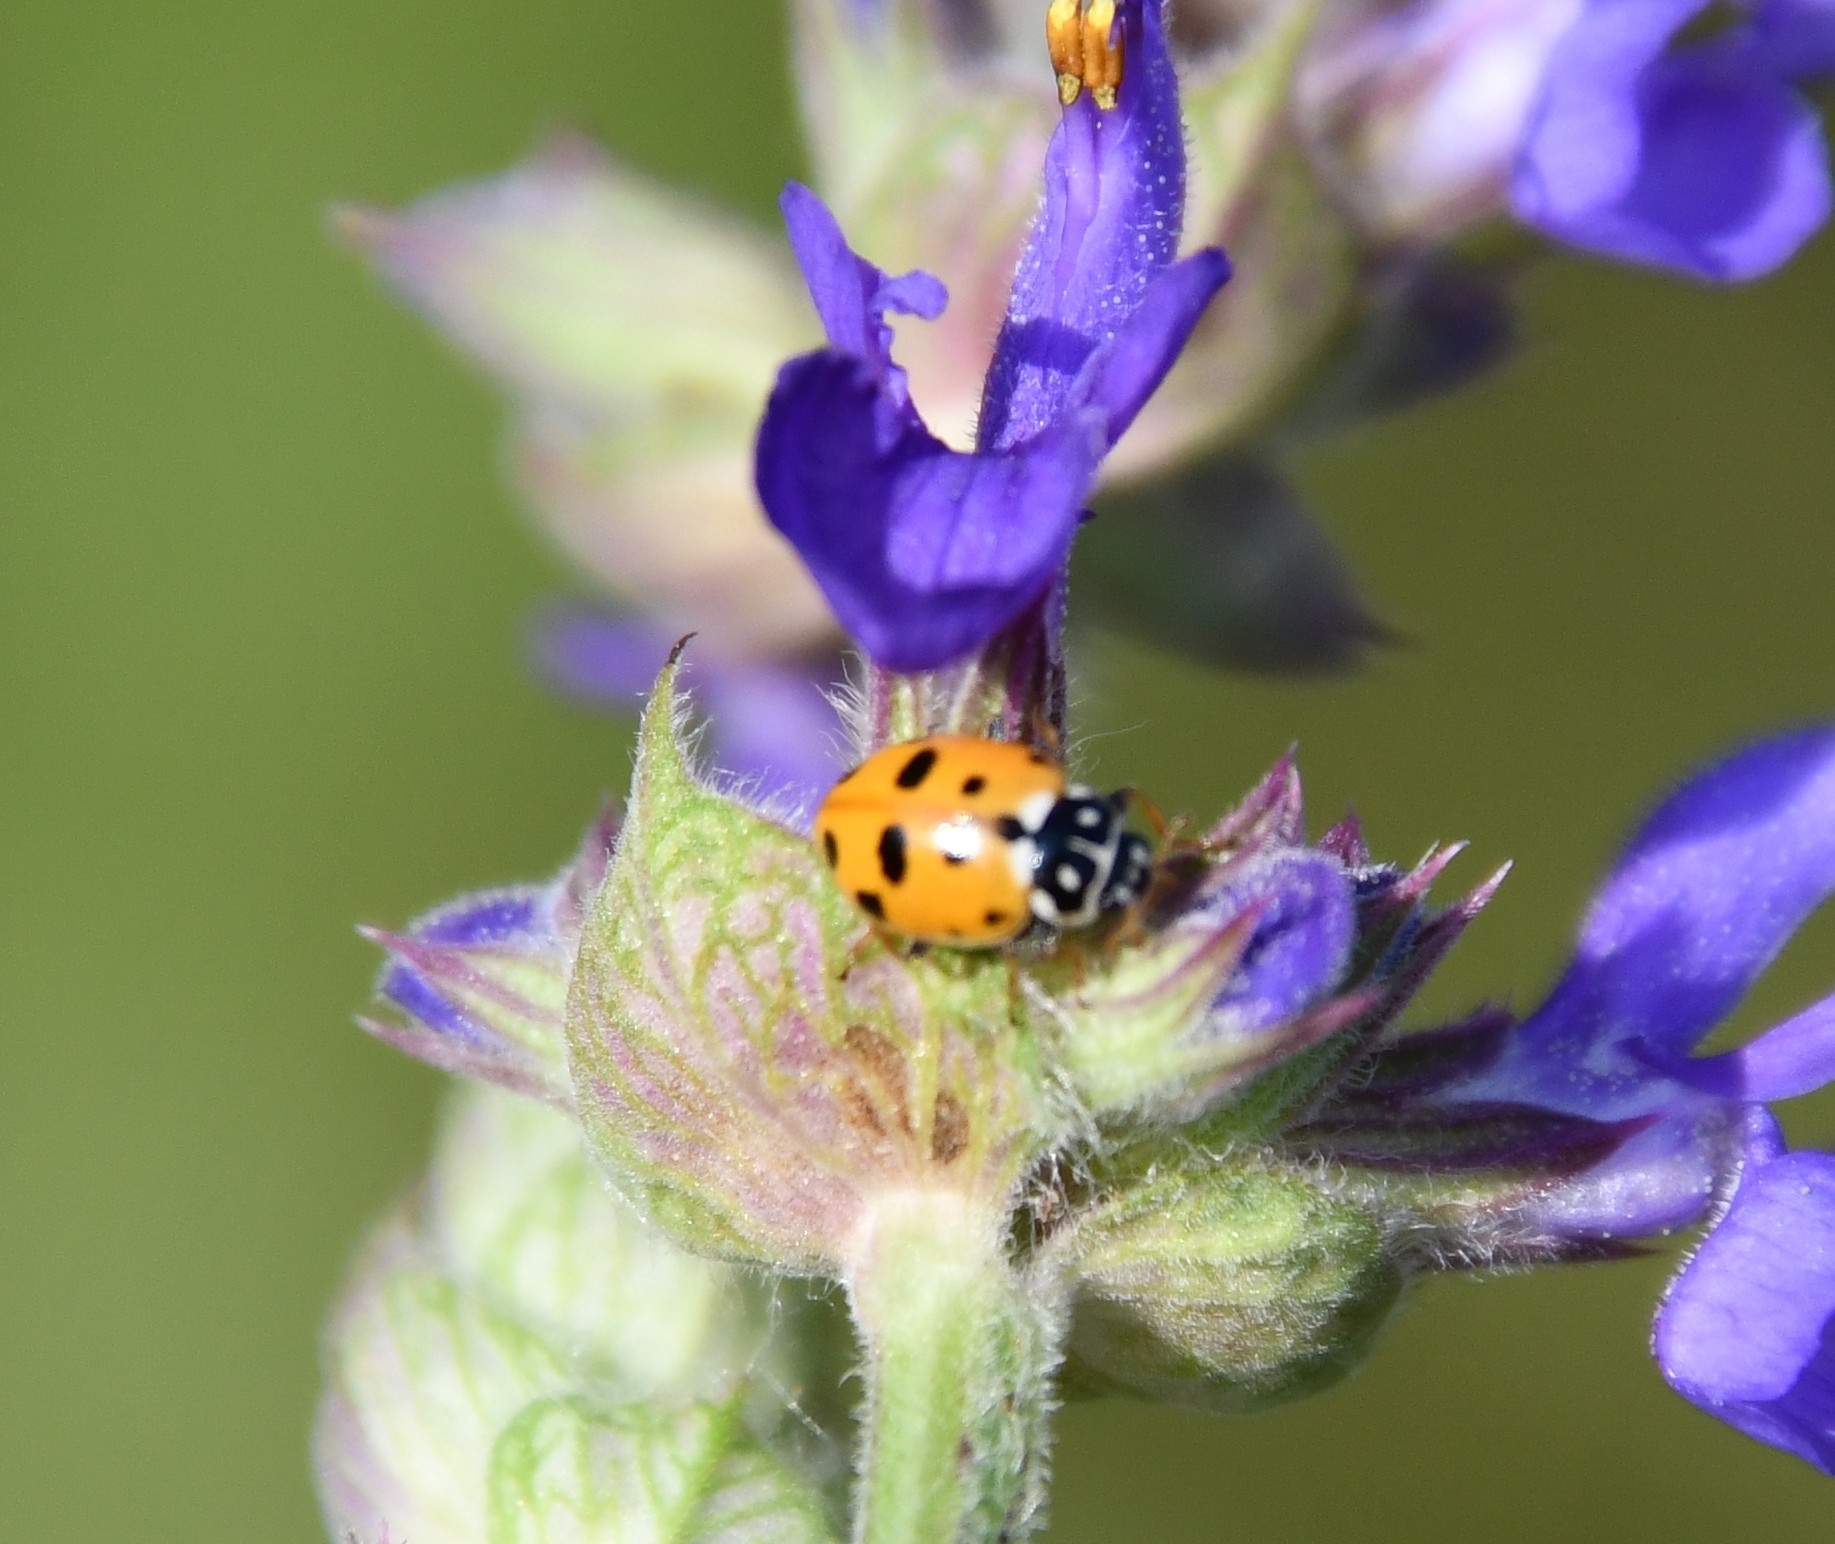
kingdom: Animalia
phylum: Arthropoda
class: Insecta
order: Coleoptera
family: Coccinellidae
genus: Hippodamia
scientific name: Hippodamia variegata
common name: Ladybird beetle
